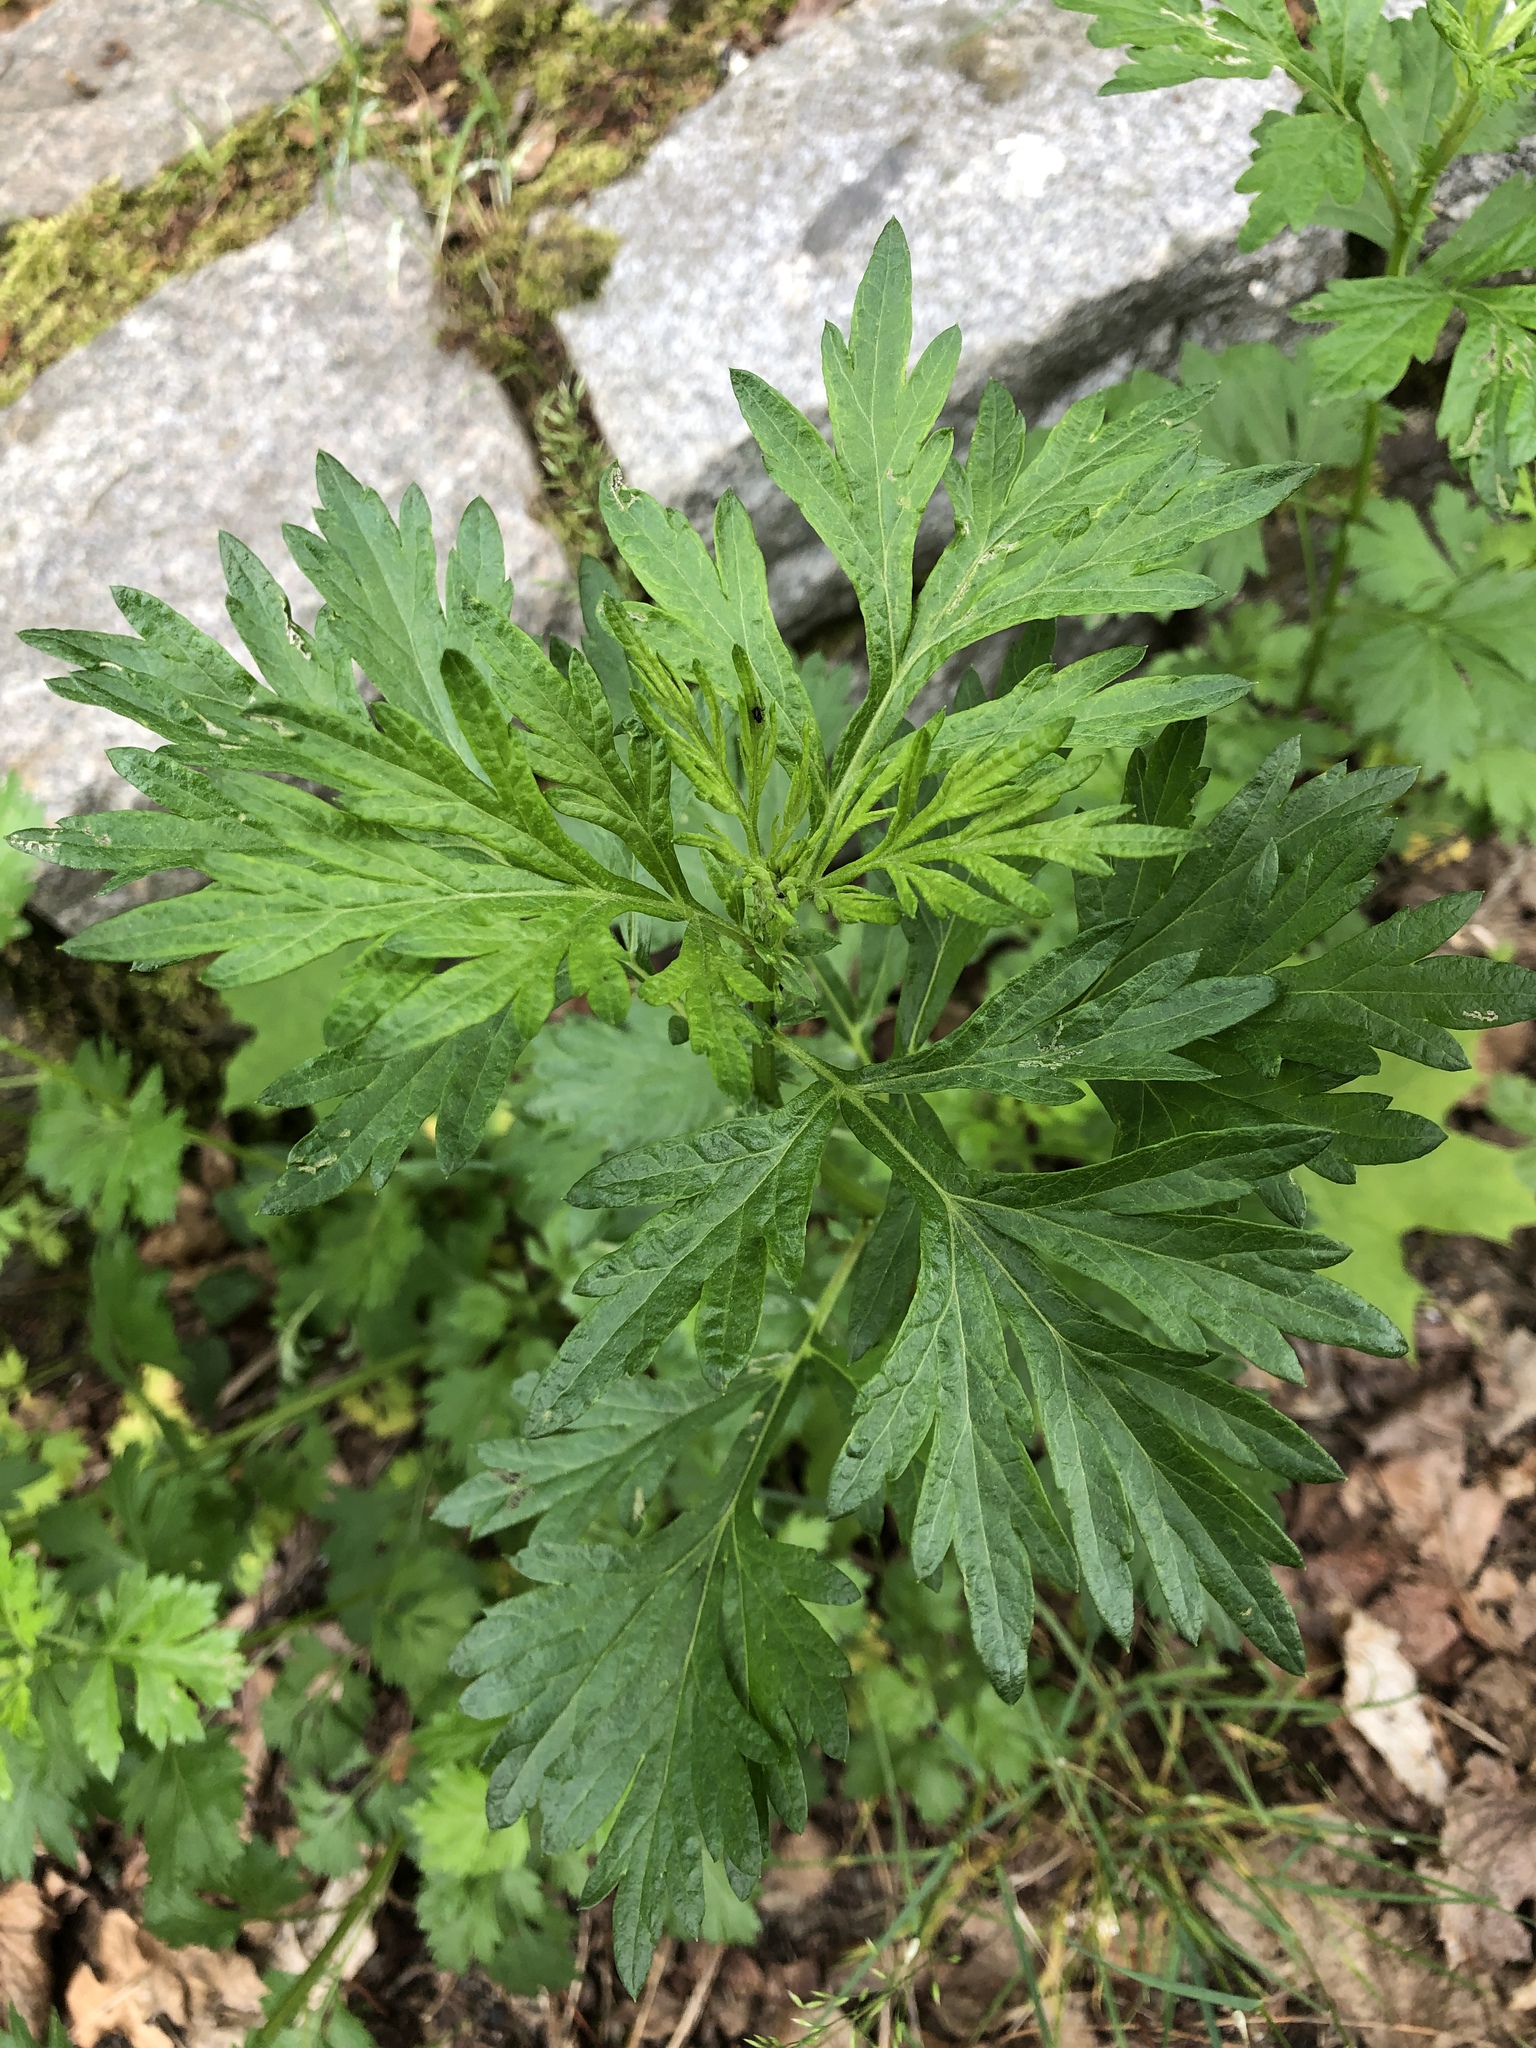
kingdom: Plantae
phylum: Tracheophyta
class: Magnoliopsida
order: Asterales
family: Asteraceae
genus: Artemisia
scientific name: Artemisia vulgaris
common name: Mugwort
